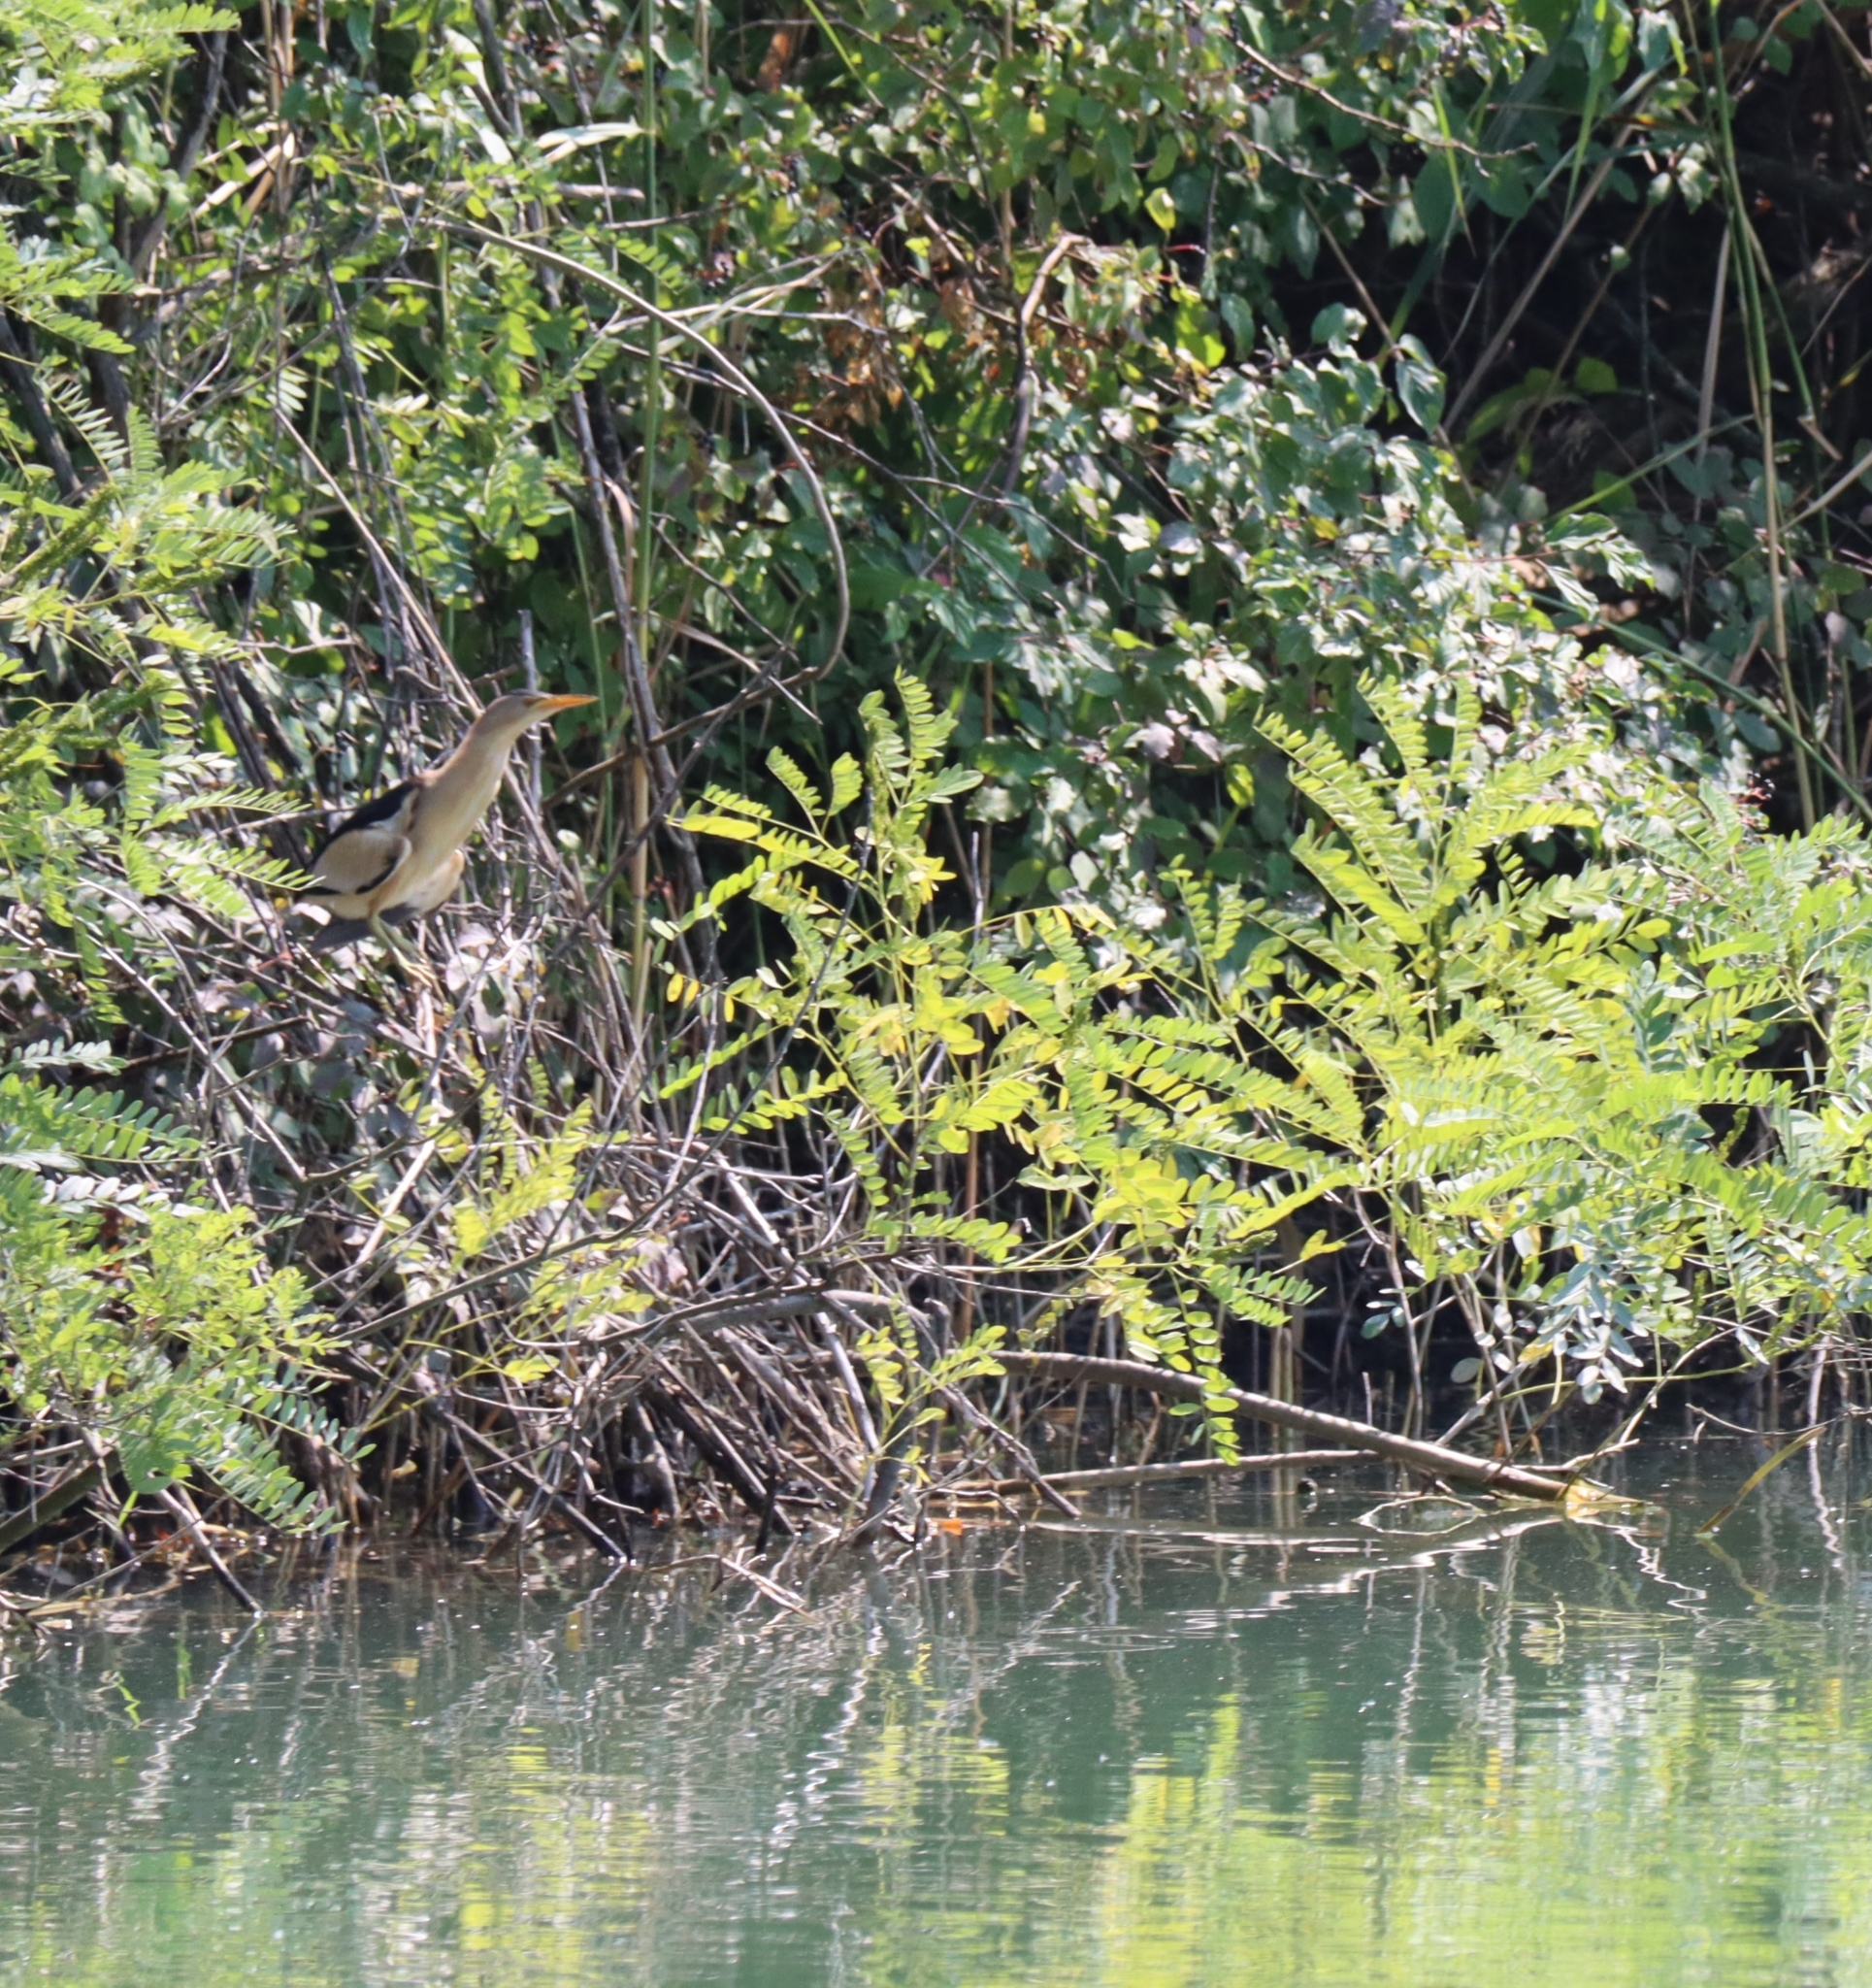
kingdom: Animalia
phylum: Chordata
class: Aves
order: Pelecaniformes
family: Ardeidae
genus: Ixobrychus
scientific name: Ixobrychus minutus
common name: Little bittern
